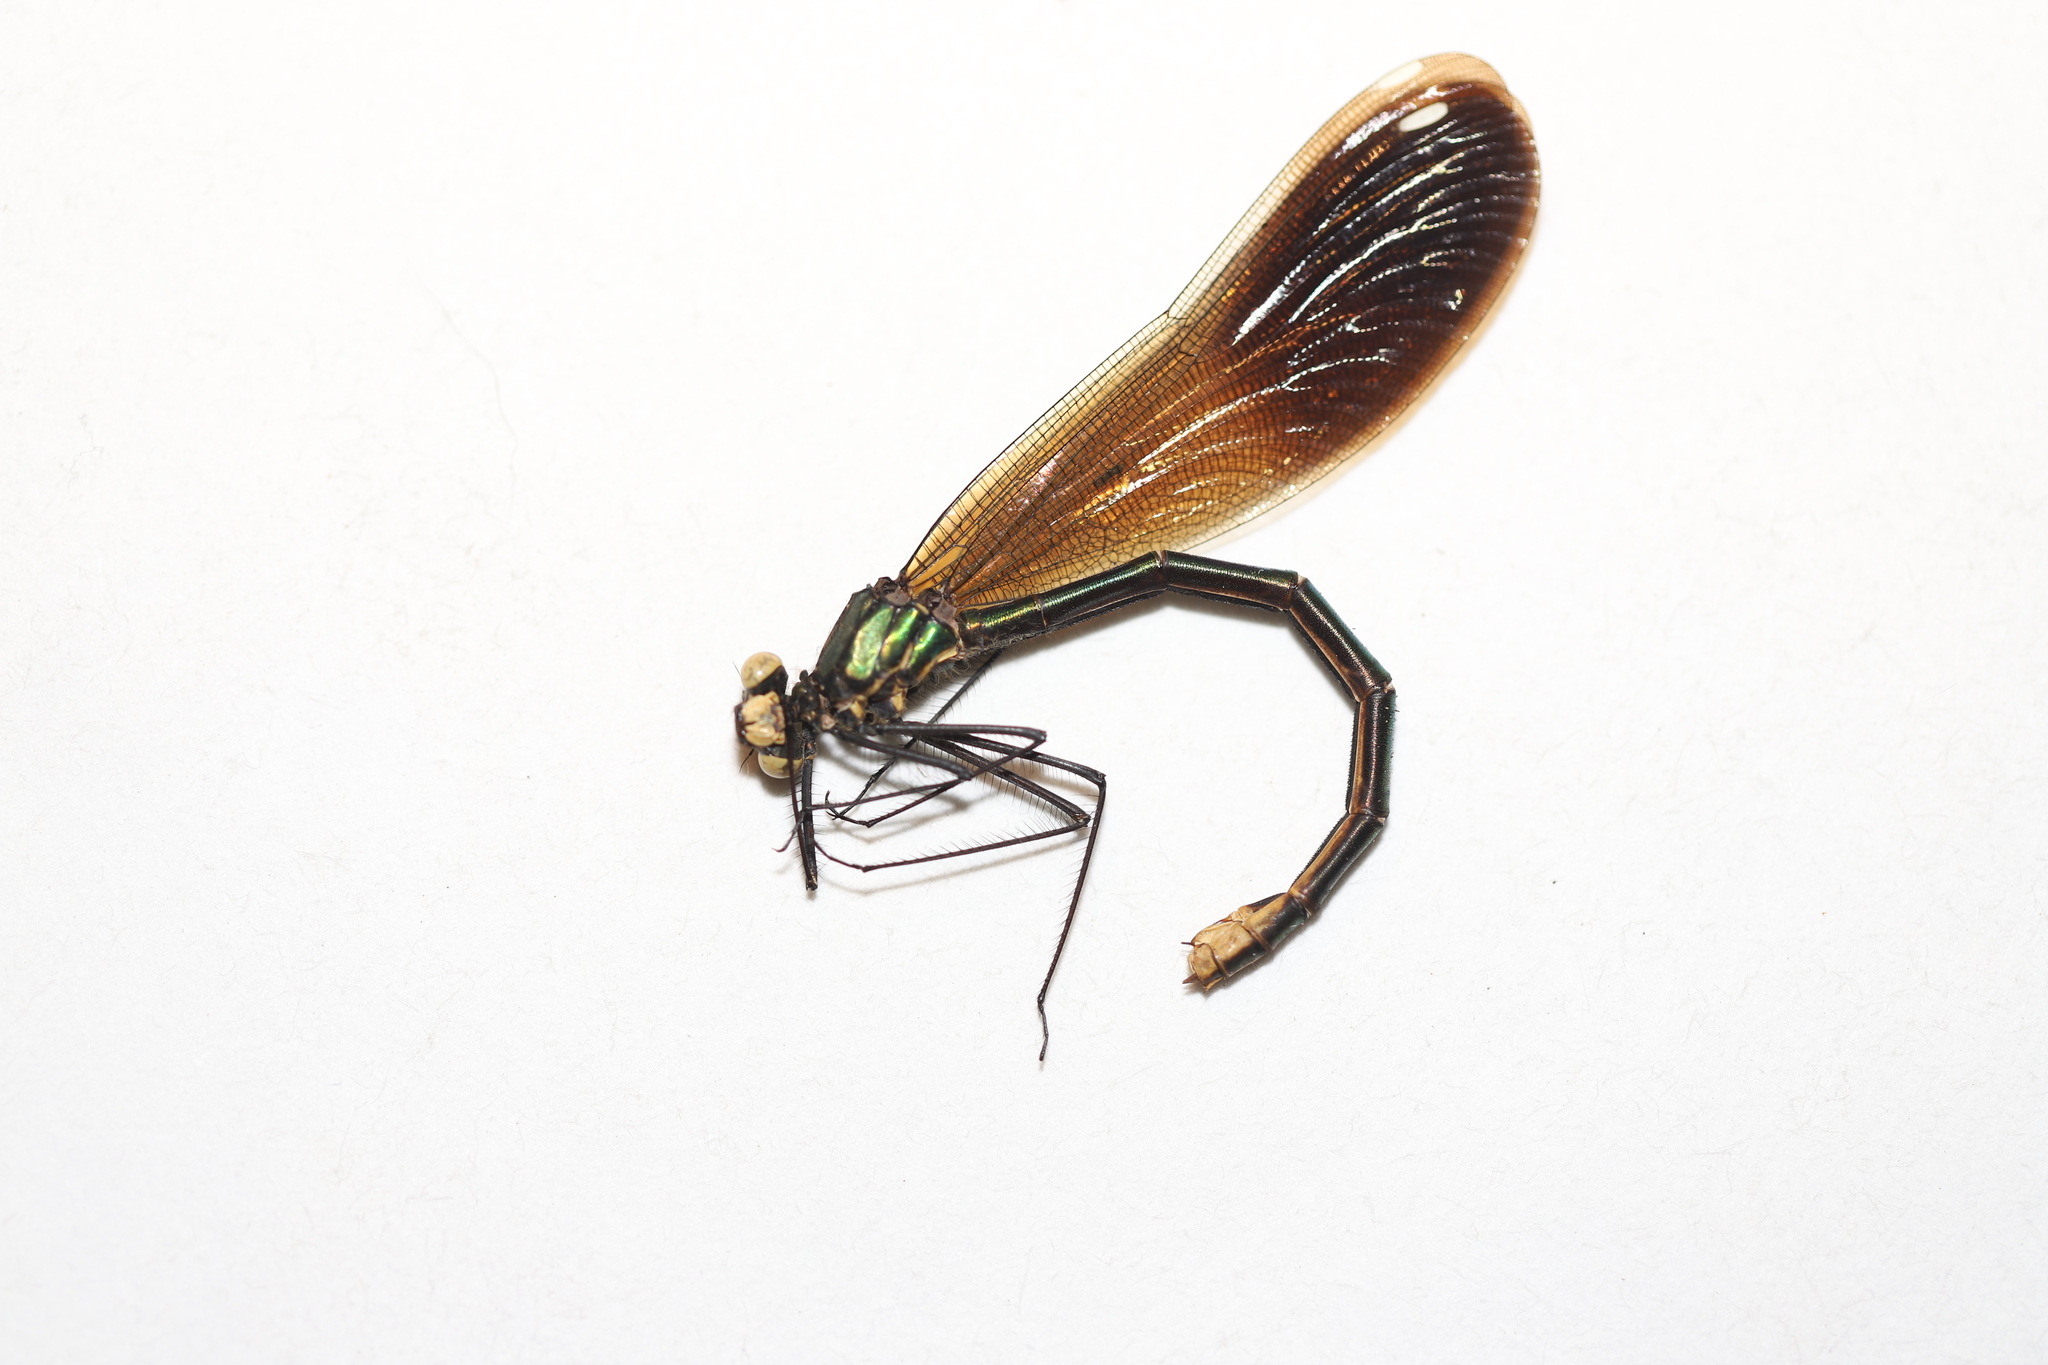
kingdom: Animalia
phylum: Arthropoda
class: Insecta
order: Odonata
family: Calopterygidae
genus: Calopteryx
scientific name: Calopteryx aequabilis
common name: River jewelwing
